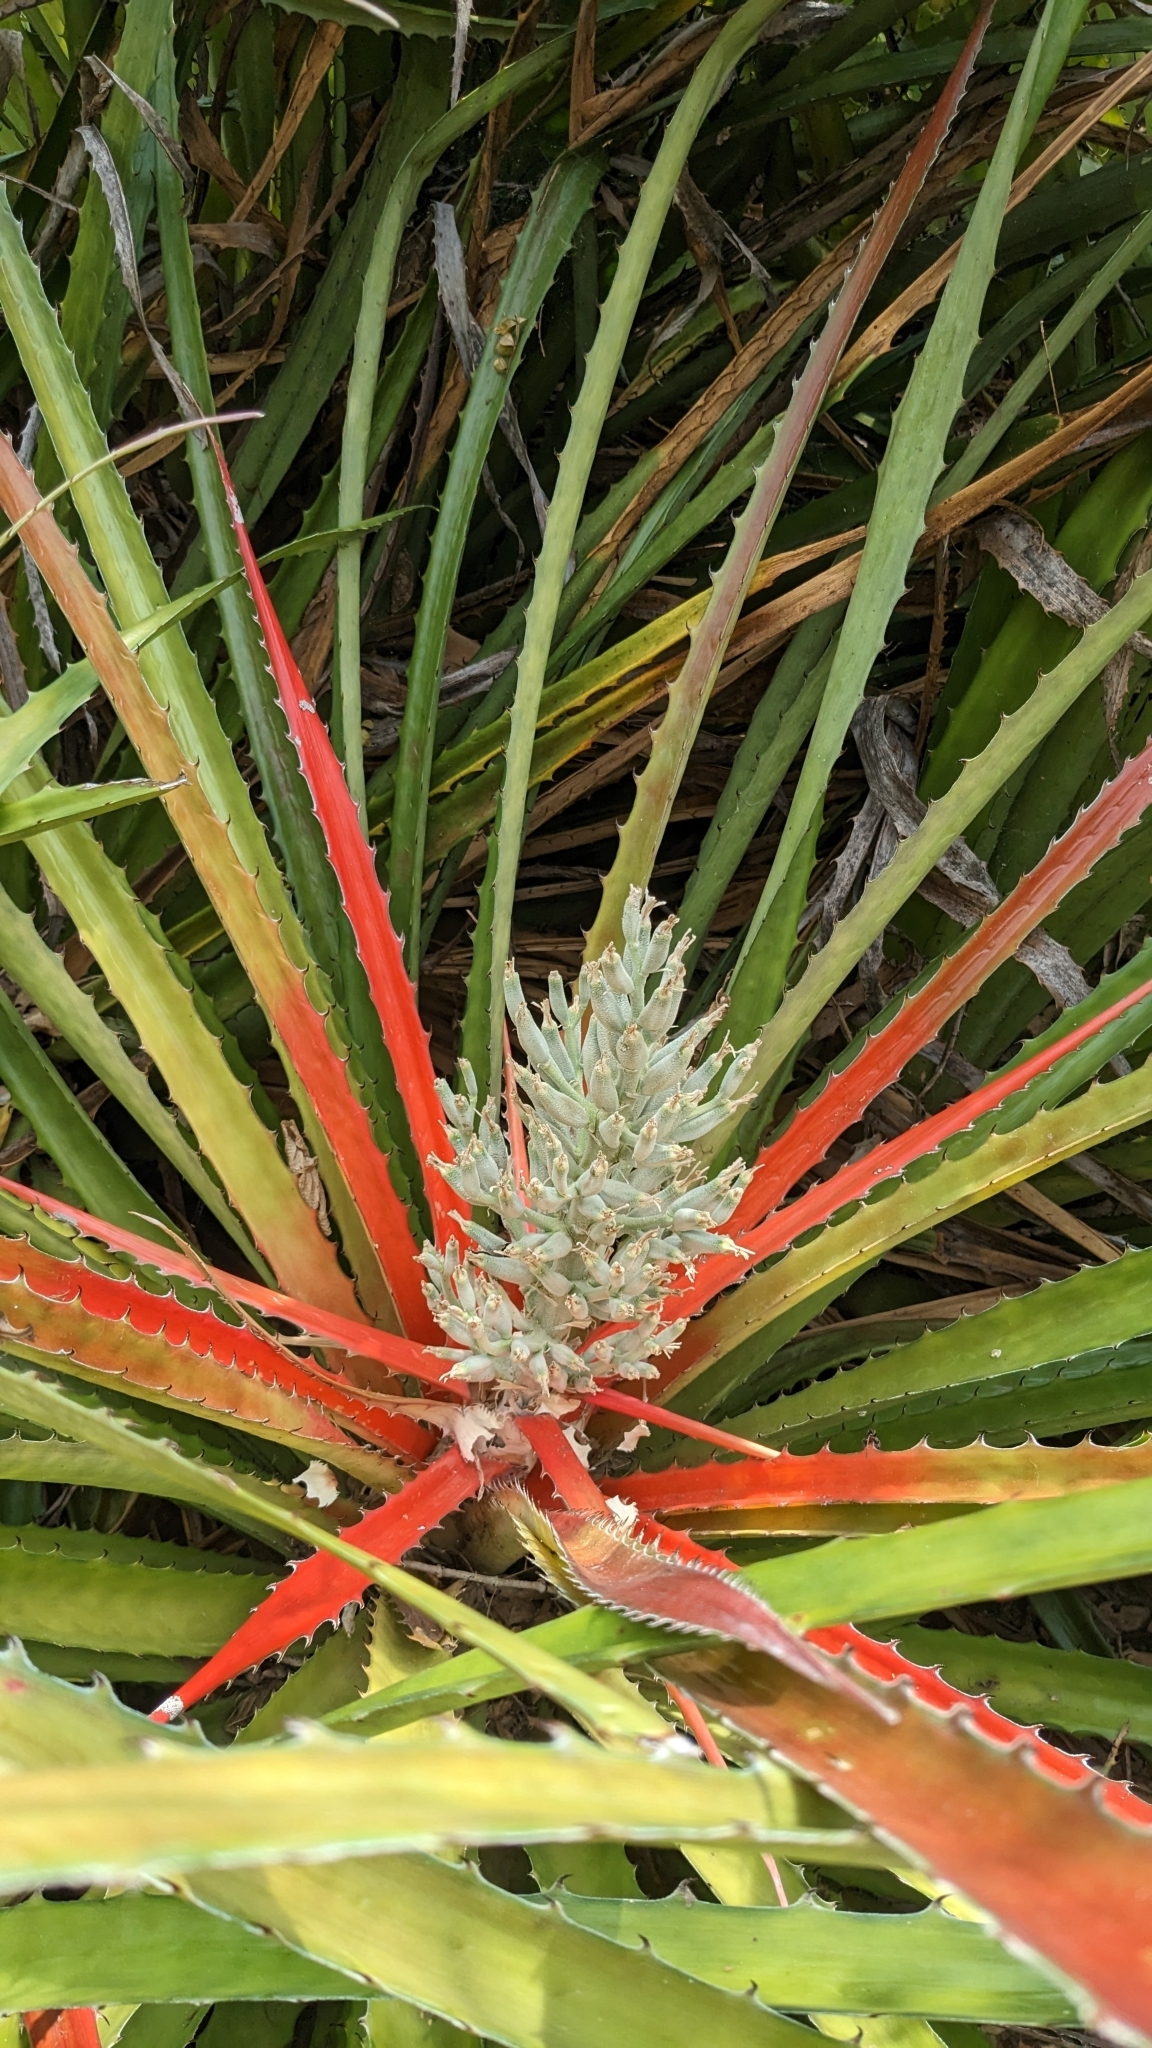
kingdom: Plantae
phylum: Tracheophyta
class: Liliopsida
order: Poales
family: Bromeliaceae
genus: Bromelia
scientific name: Bromelia pinguin
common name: Pinguin
